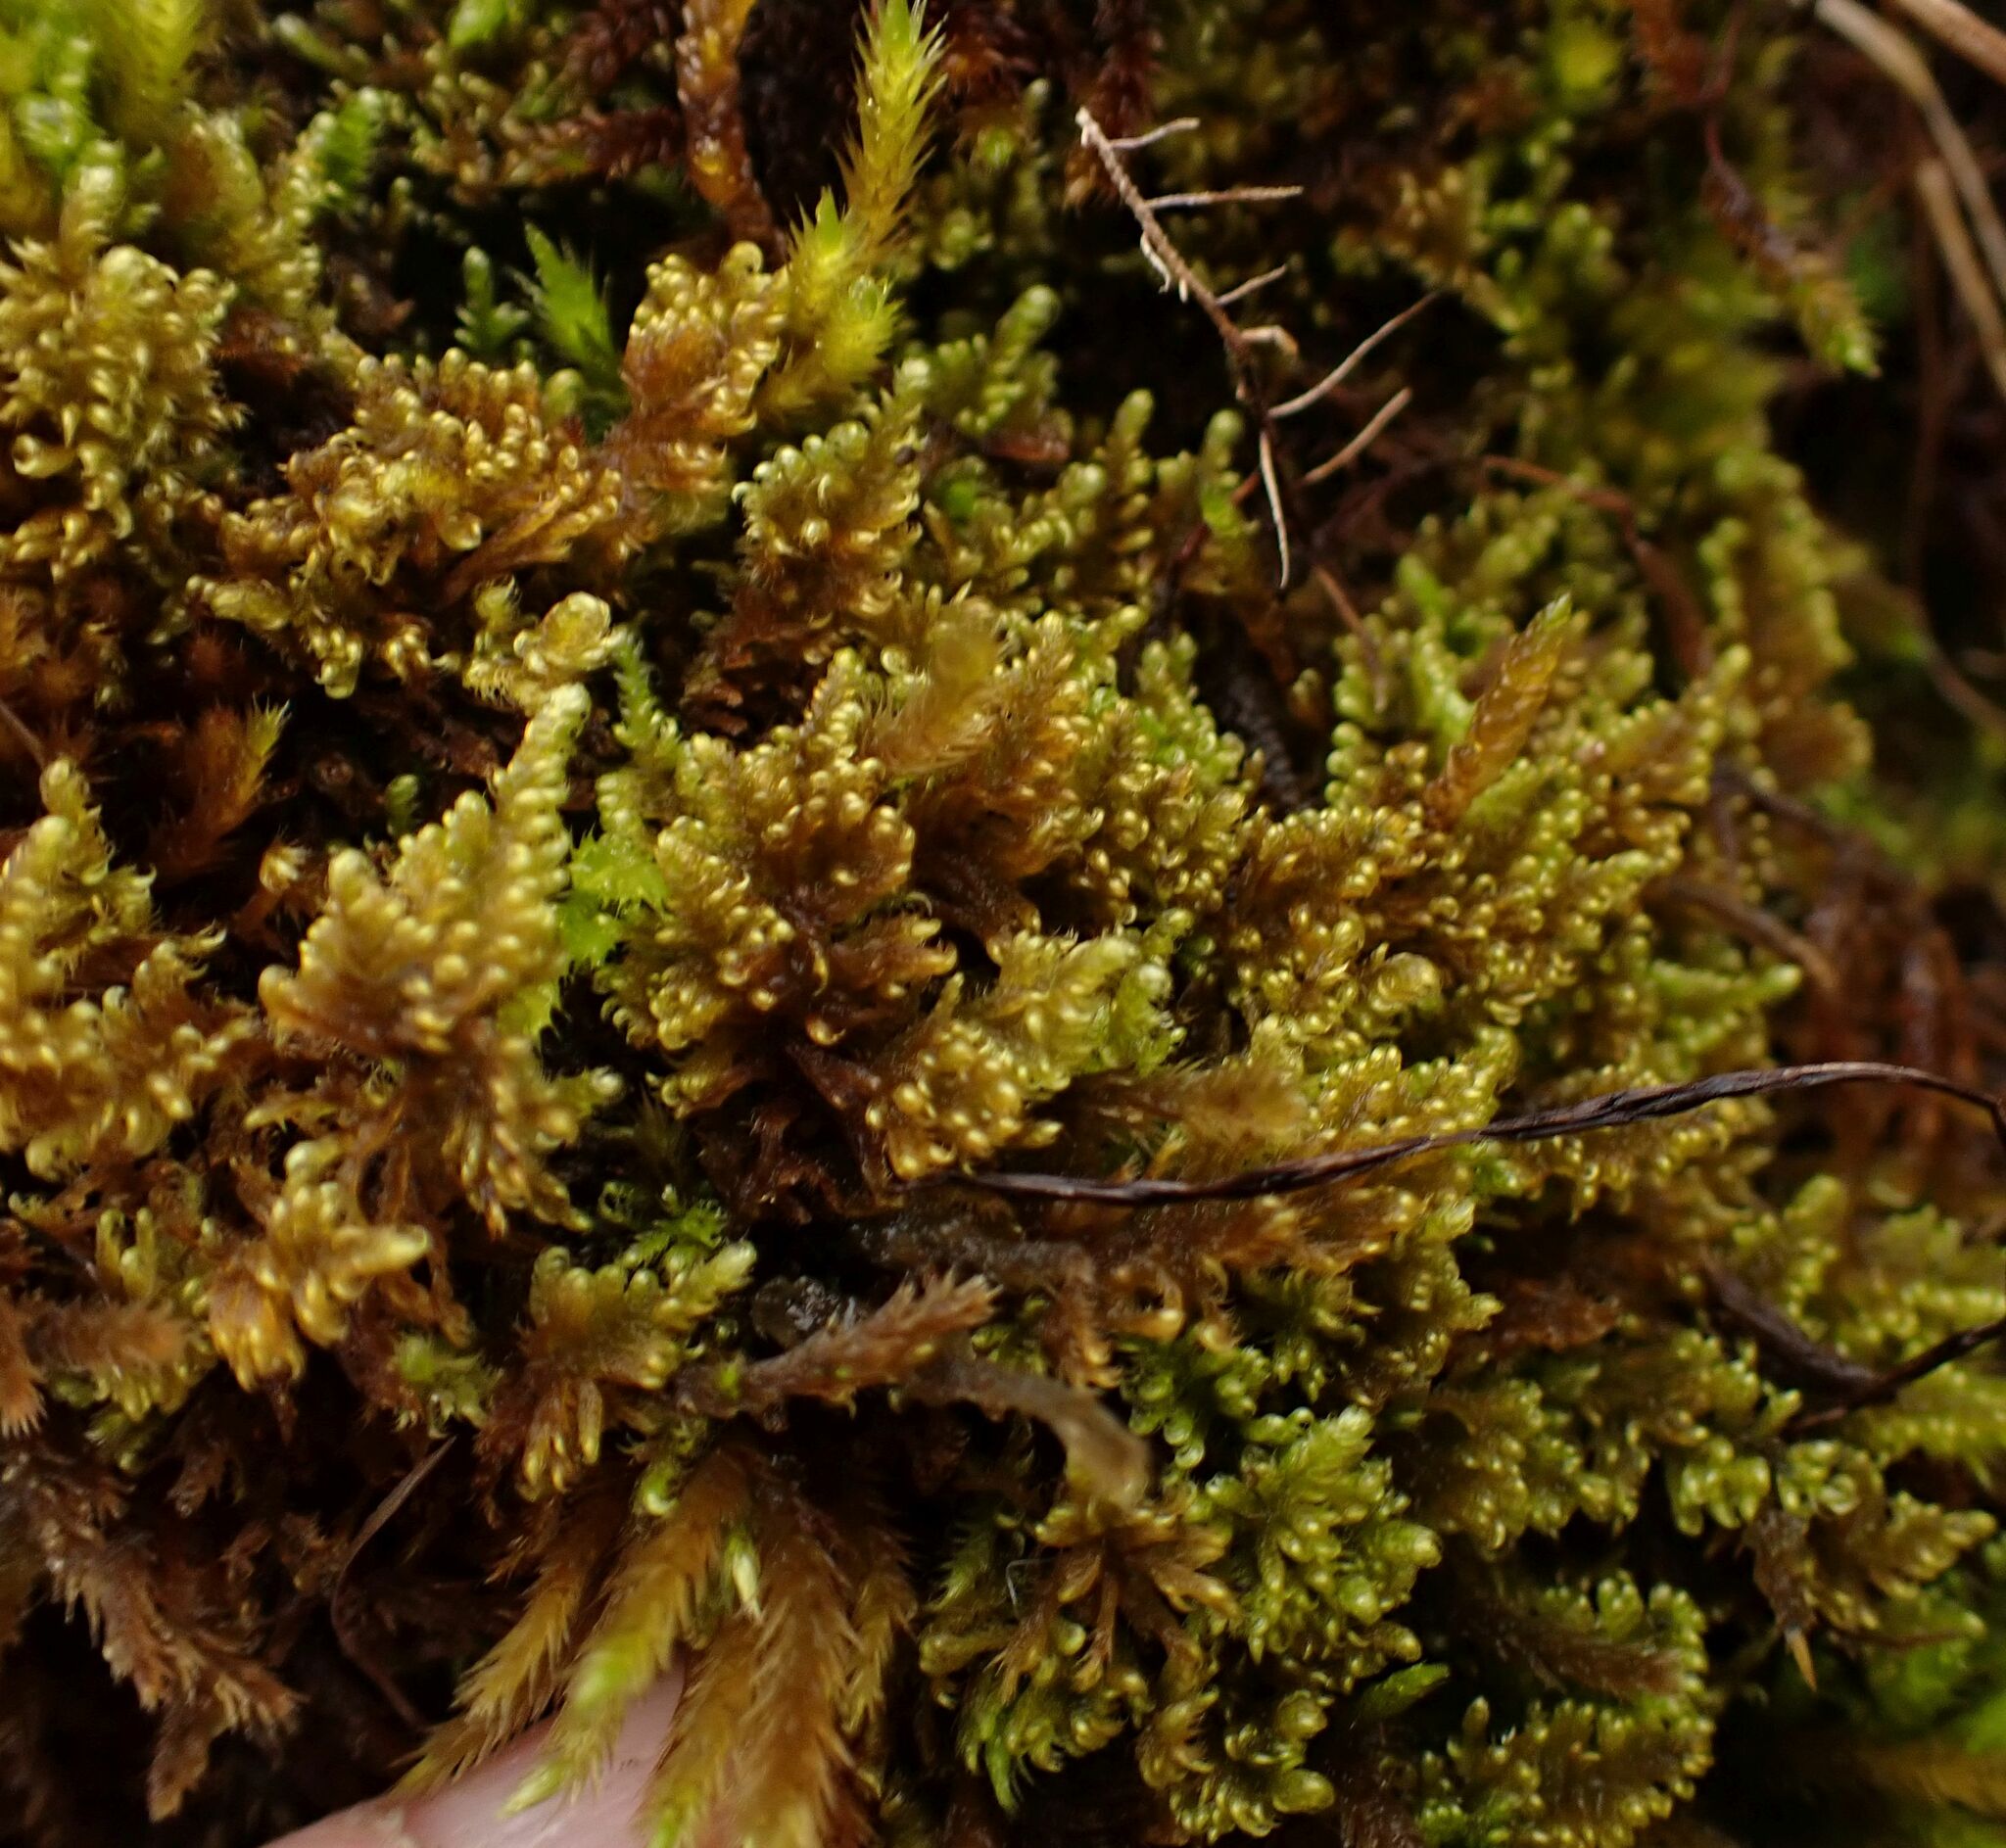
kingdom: Plantae
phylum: Bryophyta
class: Bryopsida
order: Hypnales
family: Myuriaceae
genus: Ctenidium
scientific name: Ctenidium molluscum
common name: Chalk comb-moss
